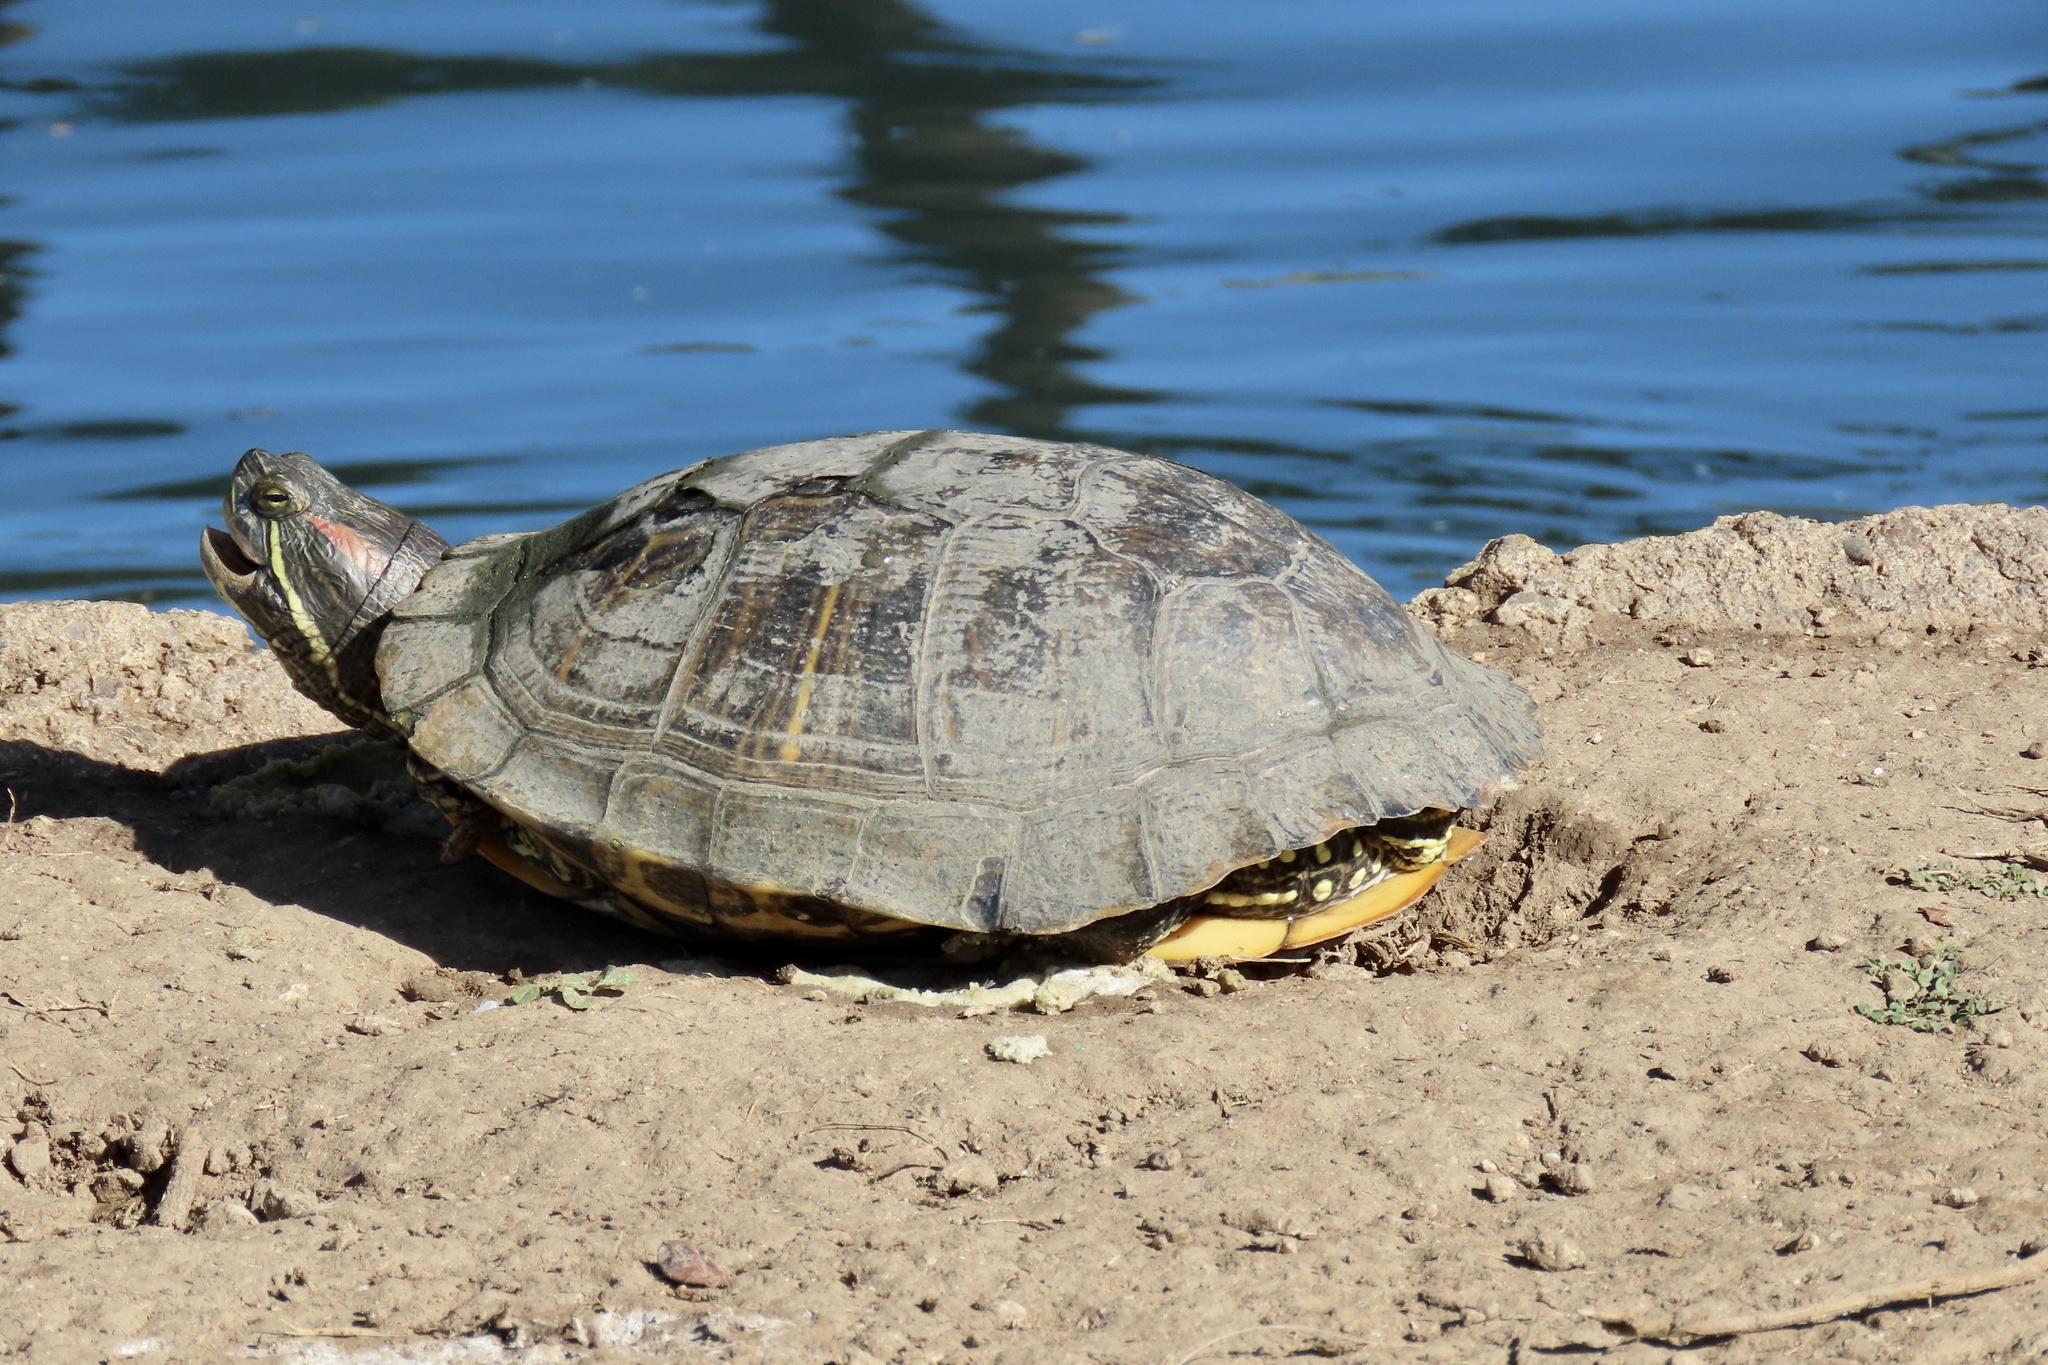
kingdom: Animalia
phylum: Chordata
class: Testudines
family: Emydidae
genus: Trachemys
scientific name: Trachemys scripta
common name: Slider
